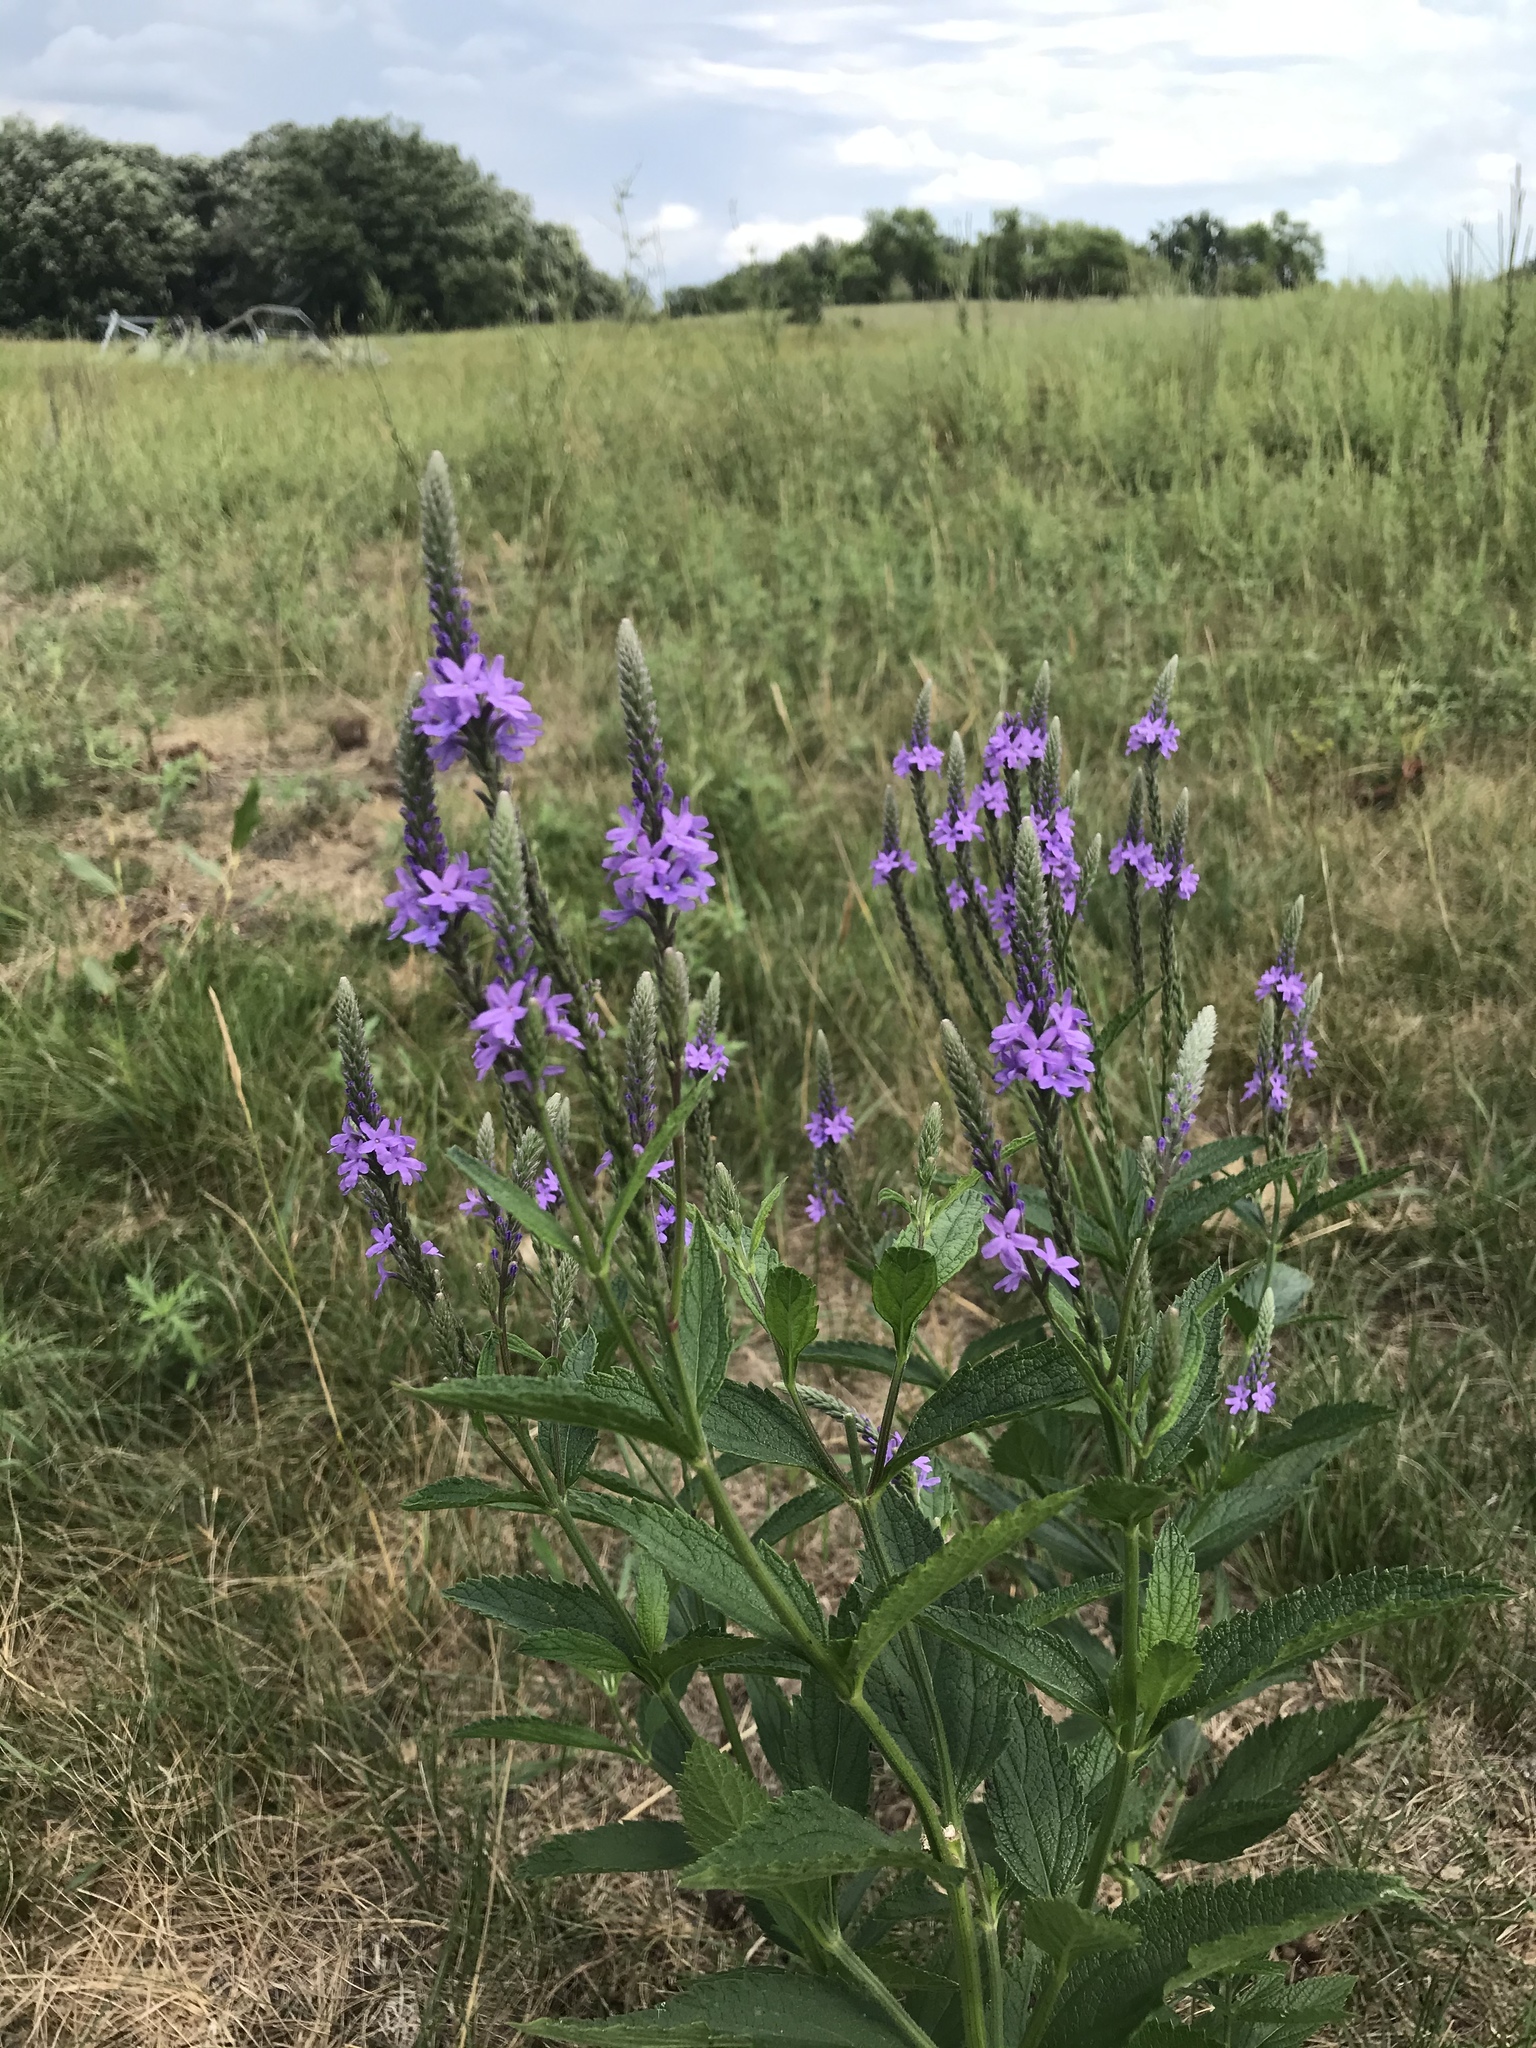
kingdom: Plantae
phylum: Tracheophyta
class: Magnoliopsida
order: Lamiales
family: Verbenaceae
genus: Verbena
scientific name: Verbena hastata
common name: American blue vervain
